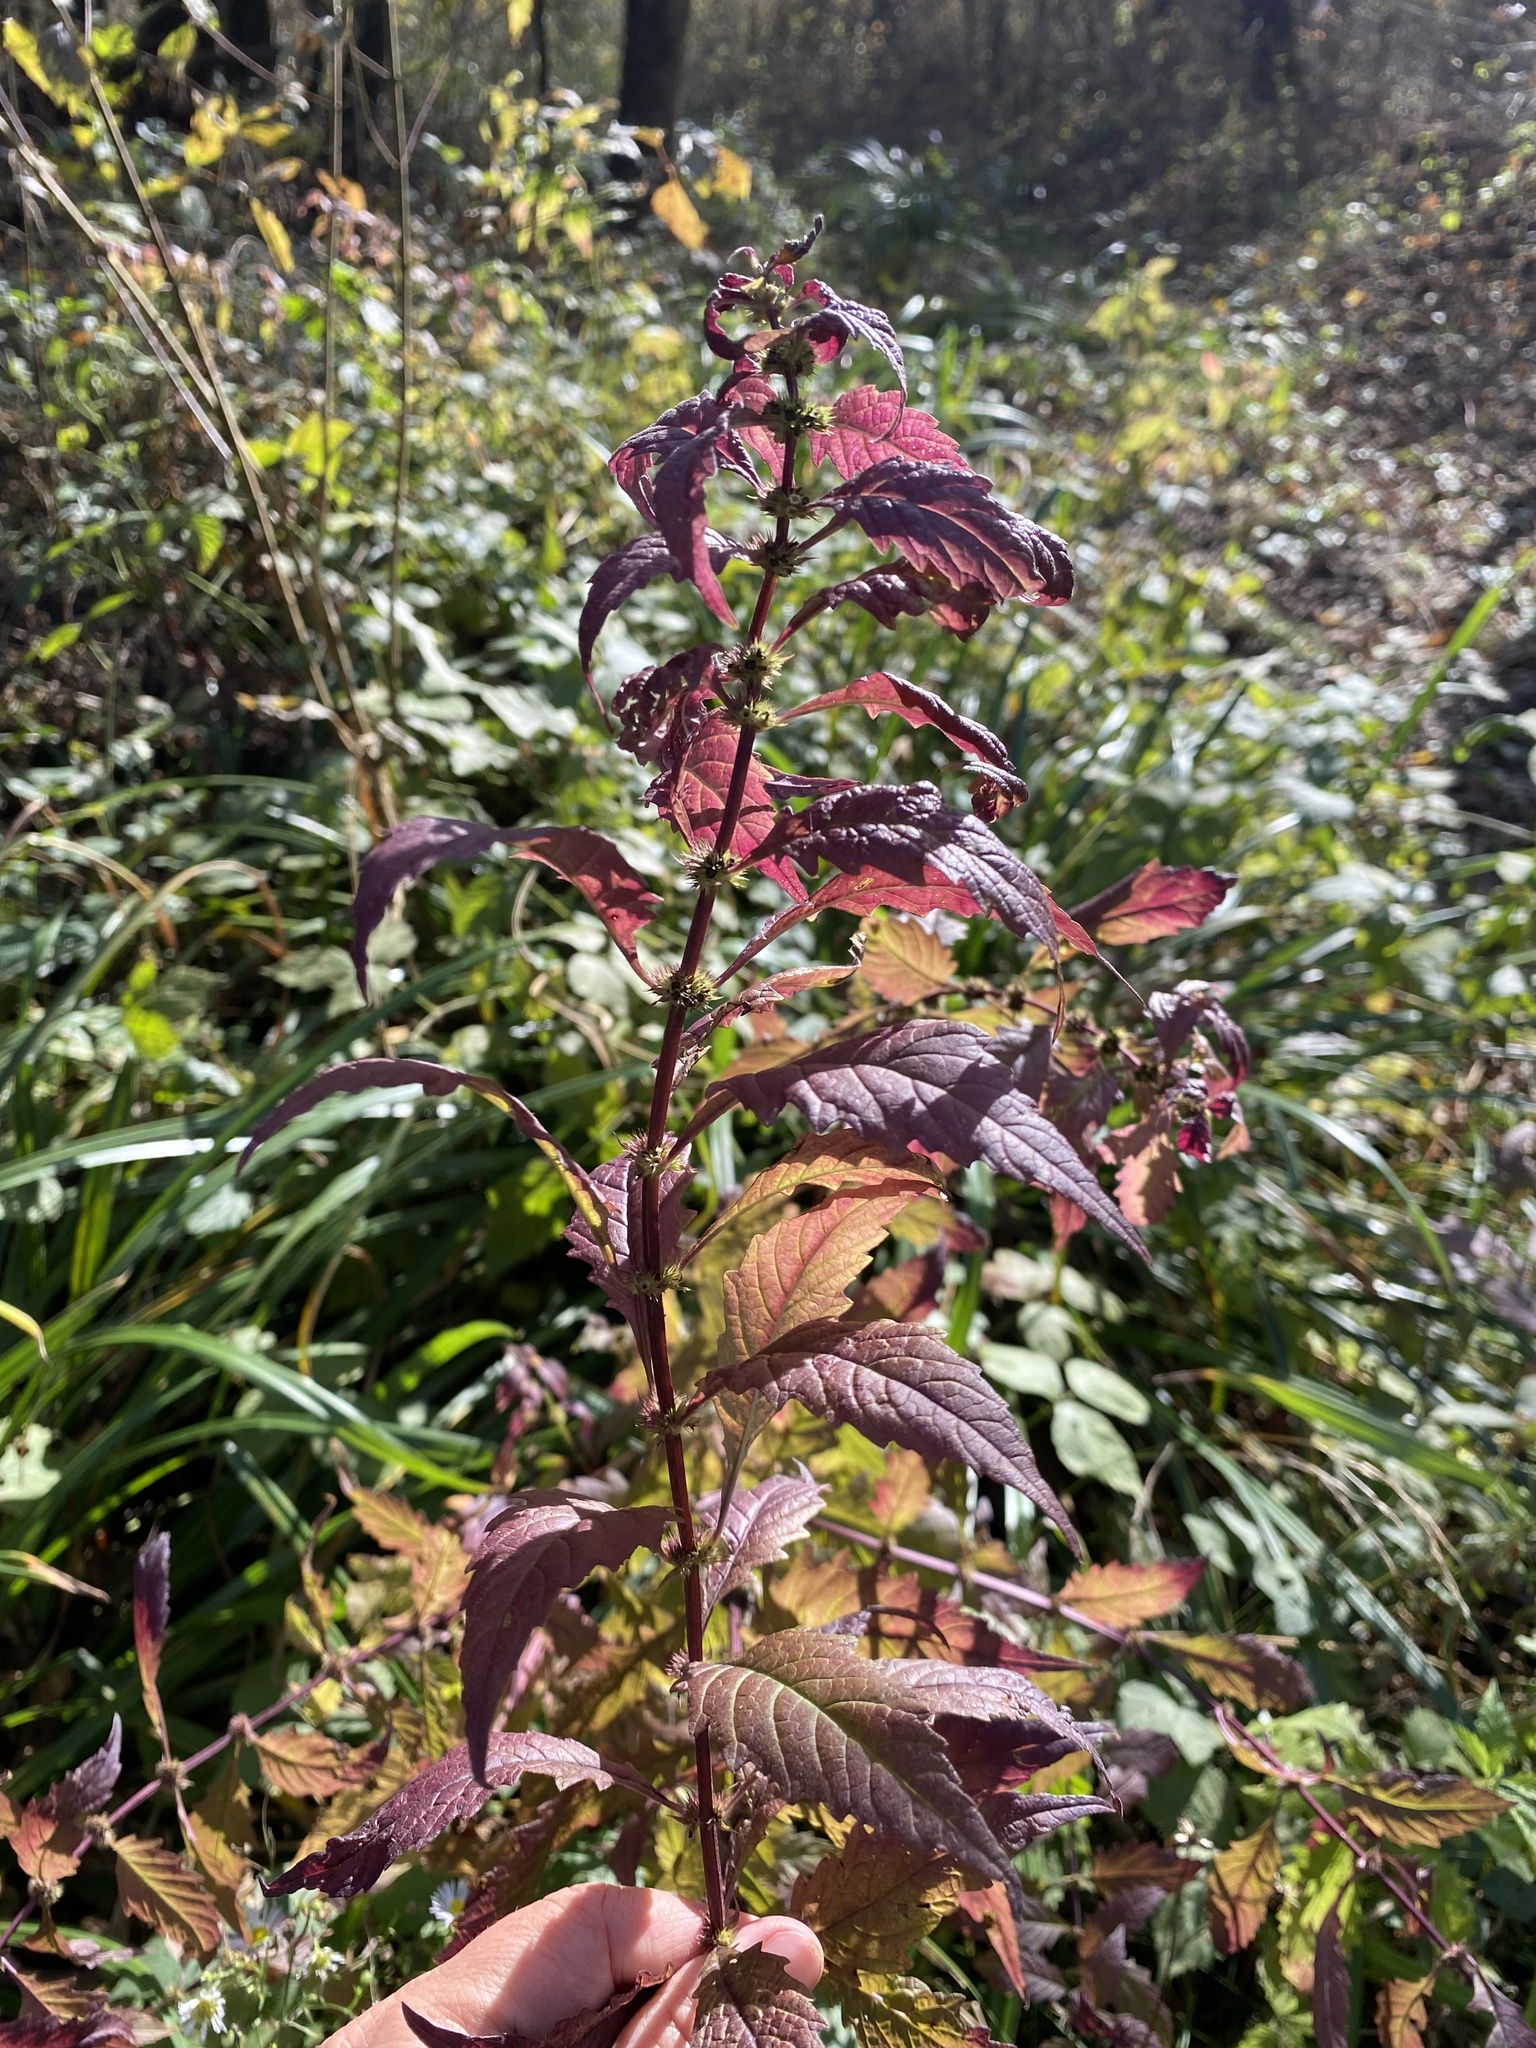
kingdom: Plantae
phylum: Tracheophyta
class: Magnoliopsida
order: Lamiales
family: Lamiaceae
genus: Lycopus
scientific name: Lycopus europaeus
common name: European bugleweed
